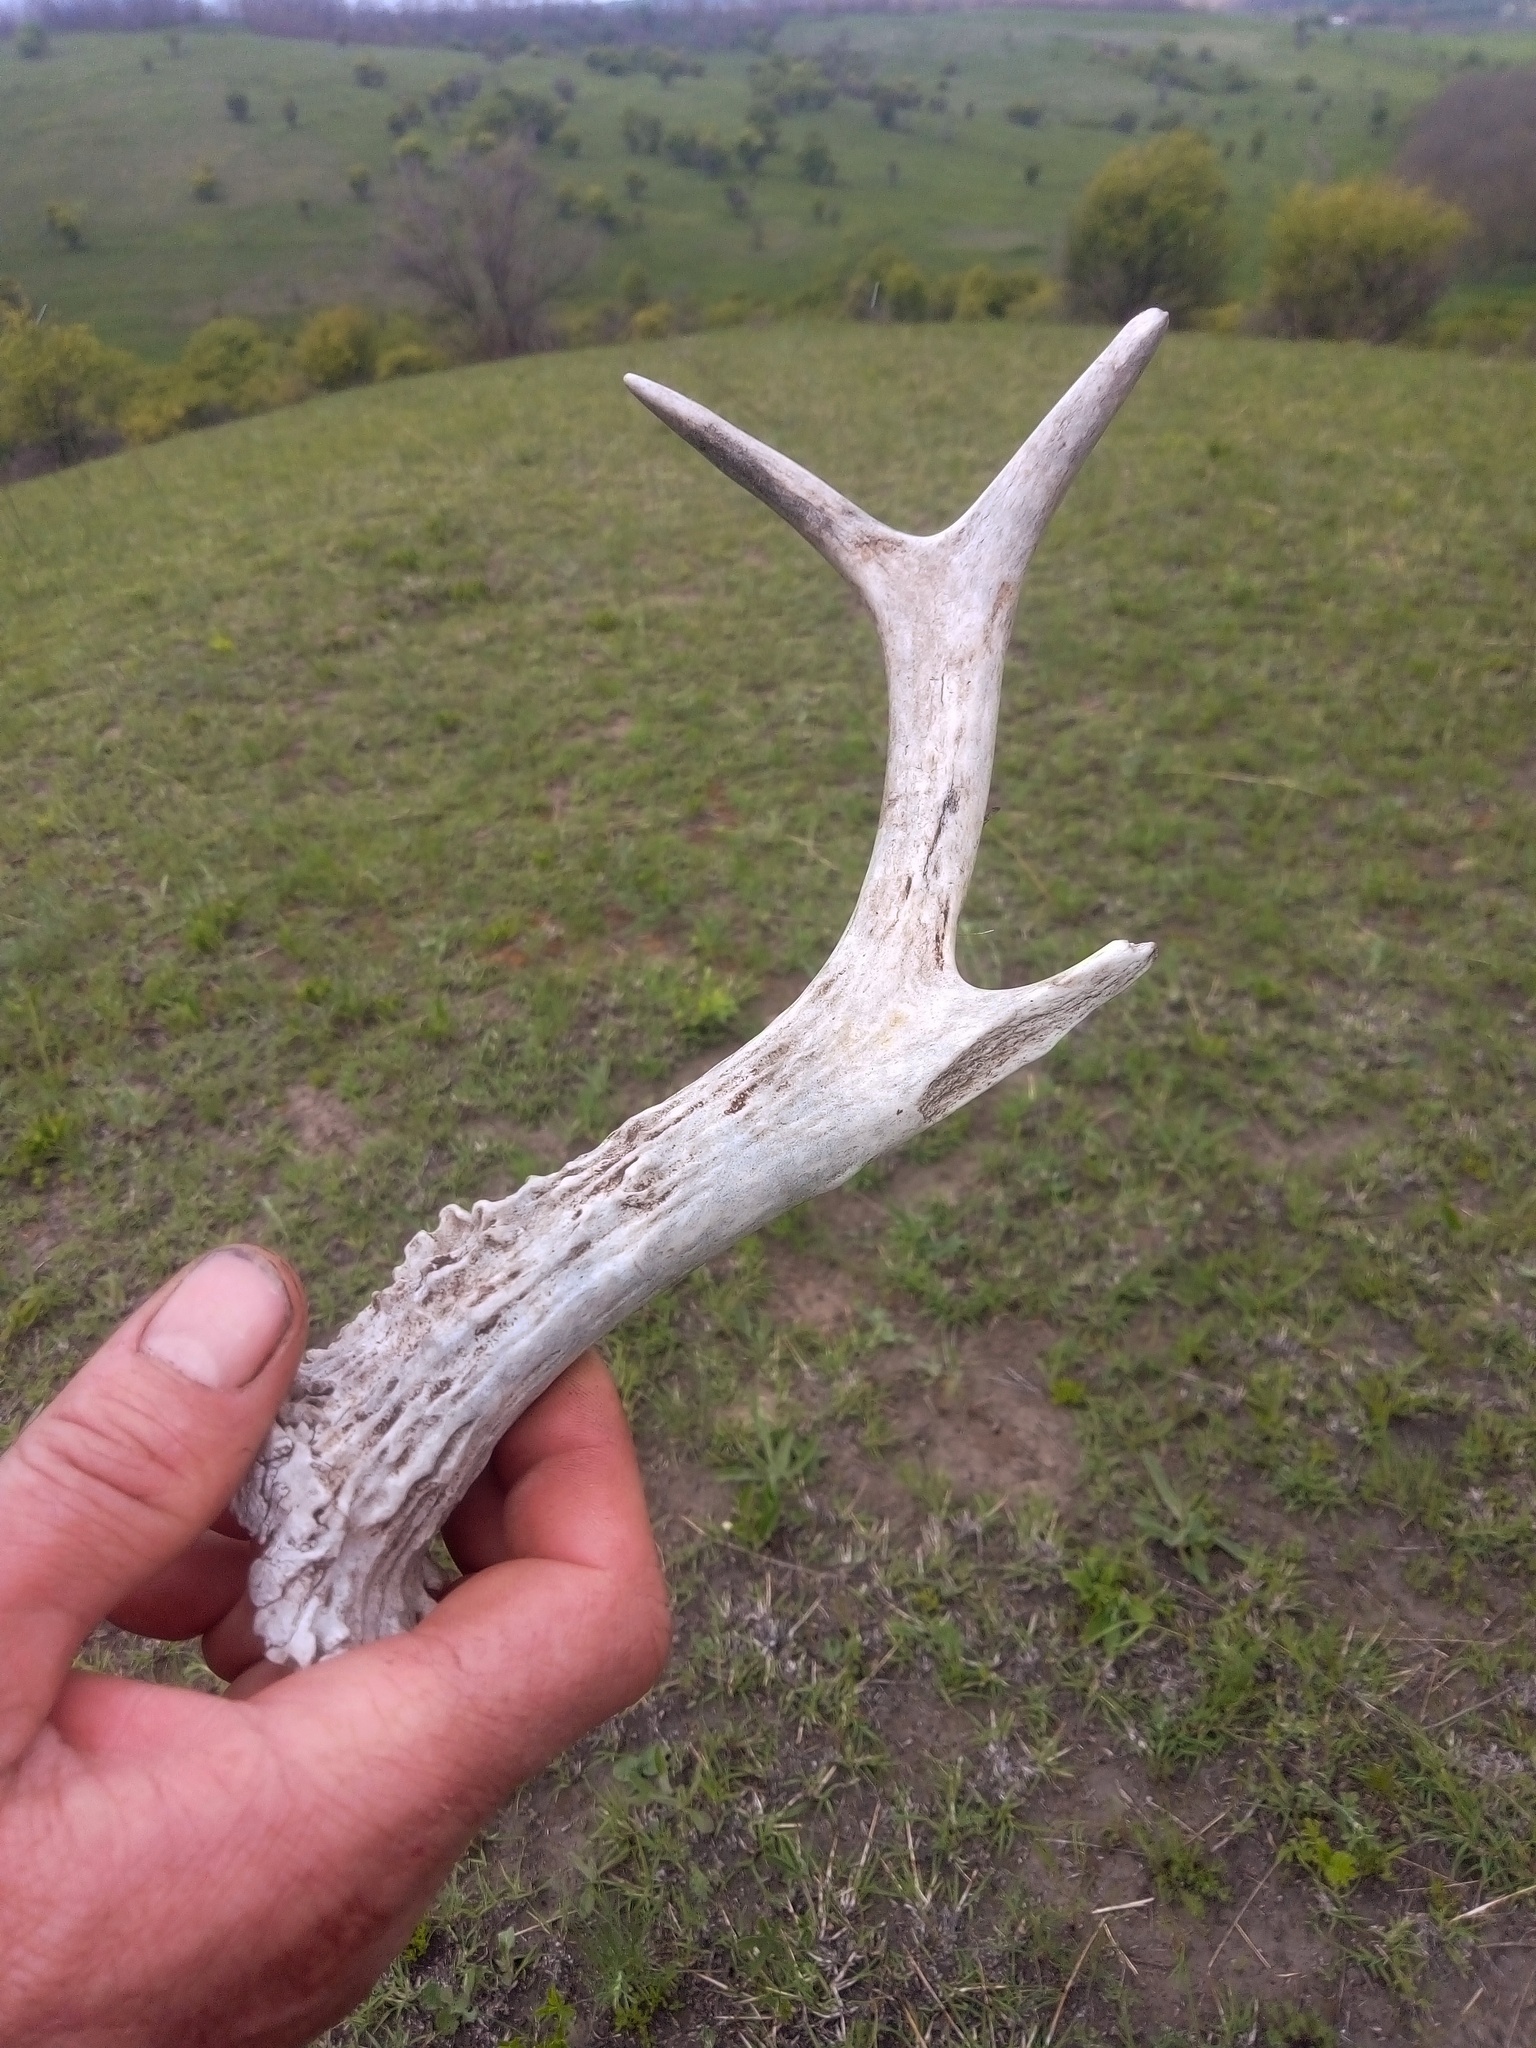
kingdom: Animalia
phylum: Chordata
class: Mammalia
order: Artiodactyla
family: Cervidae
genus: Capreolus
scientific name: Capreolus capreolus
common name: Western roe deer
